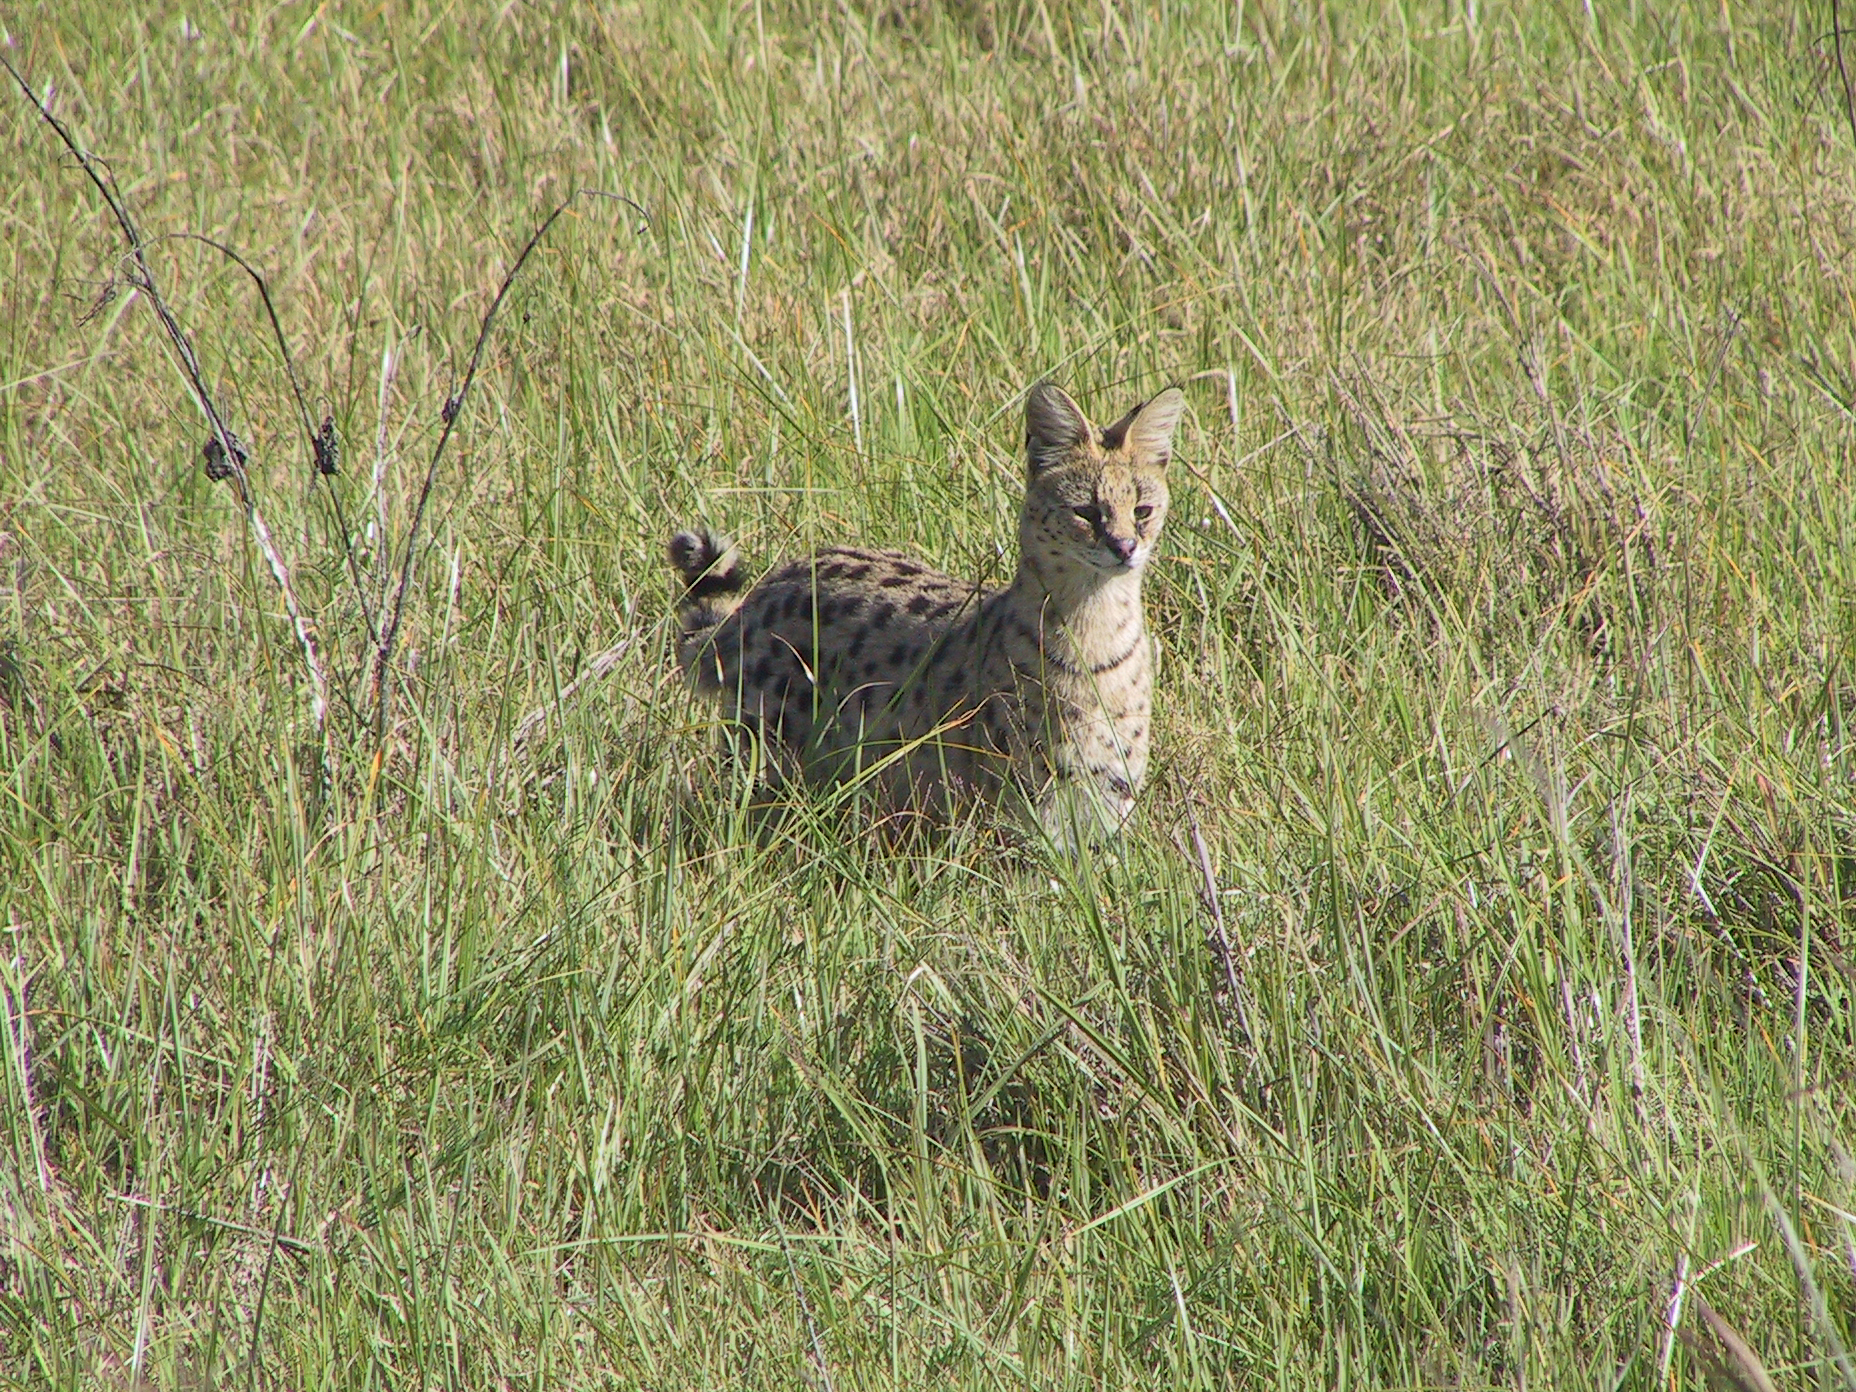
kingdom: Animalia
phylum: Chordata
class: Mammalia
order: Carnivora
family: Felidae
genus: Leptailurus
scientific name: Leptailurus serval
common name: Serval
